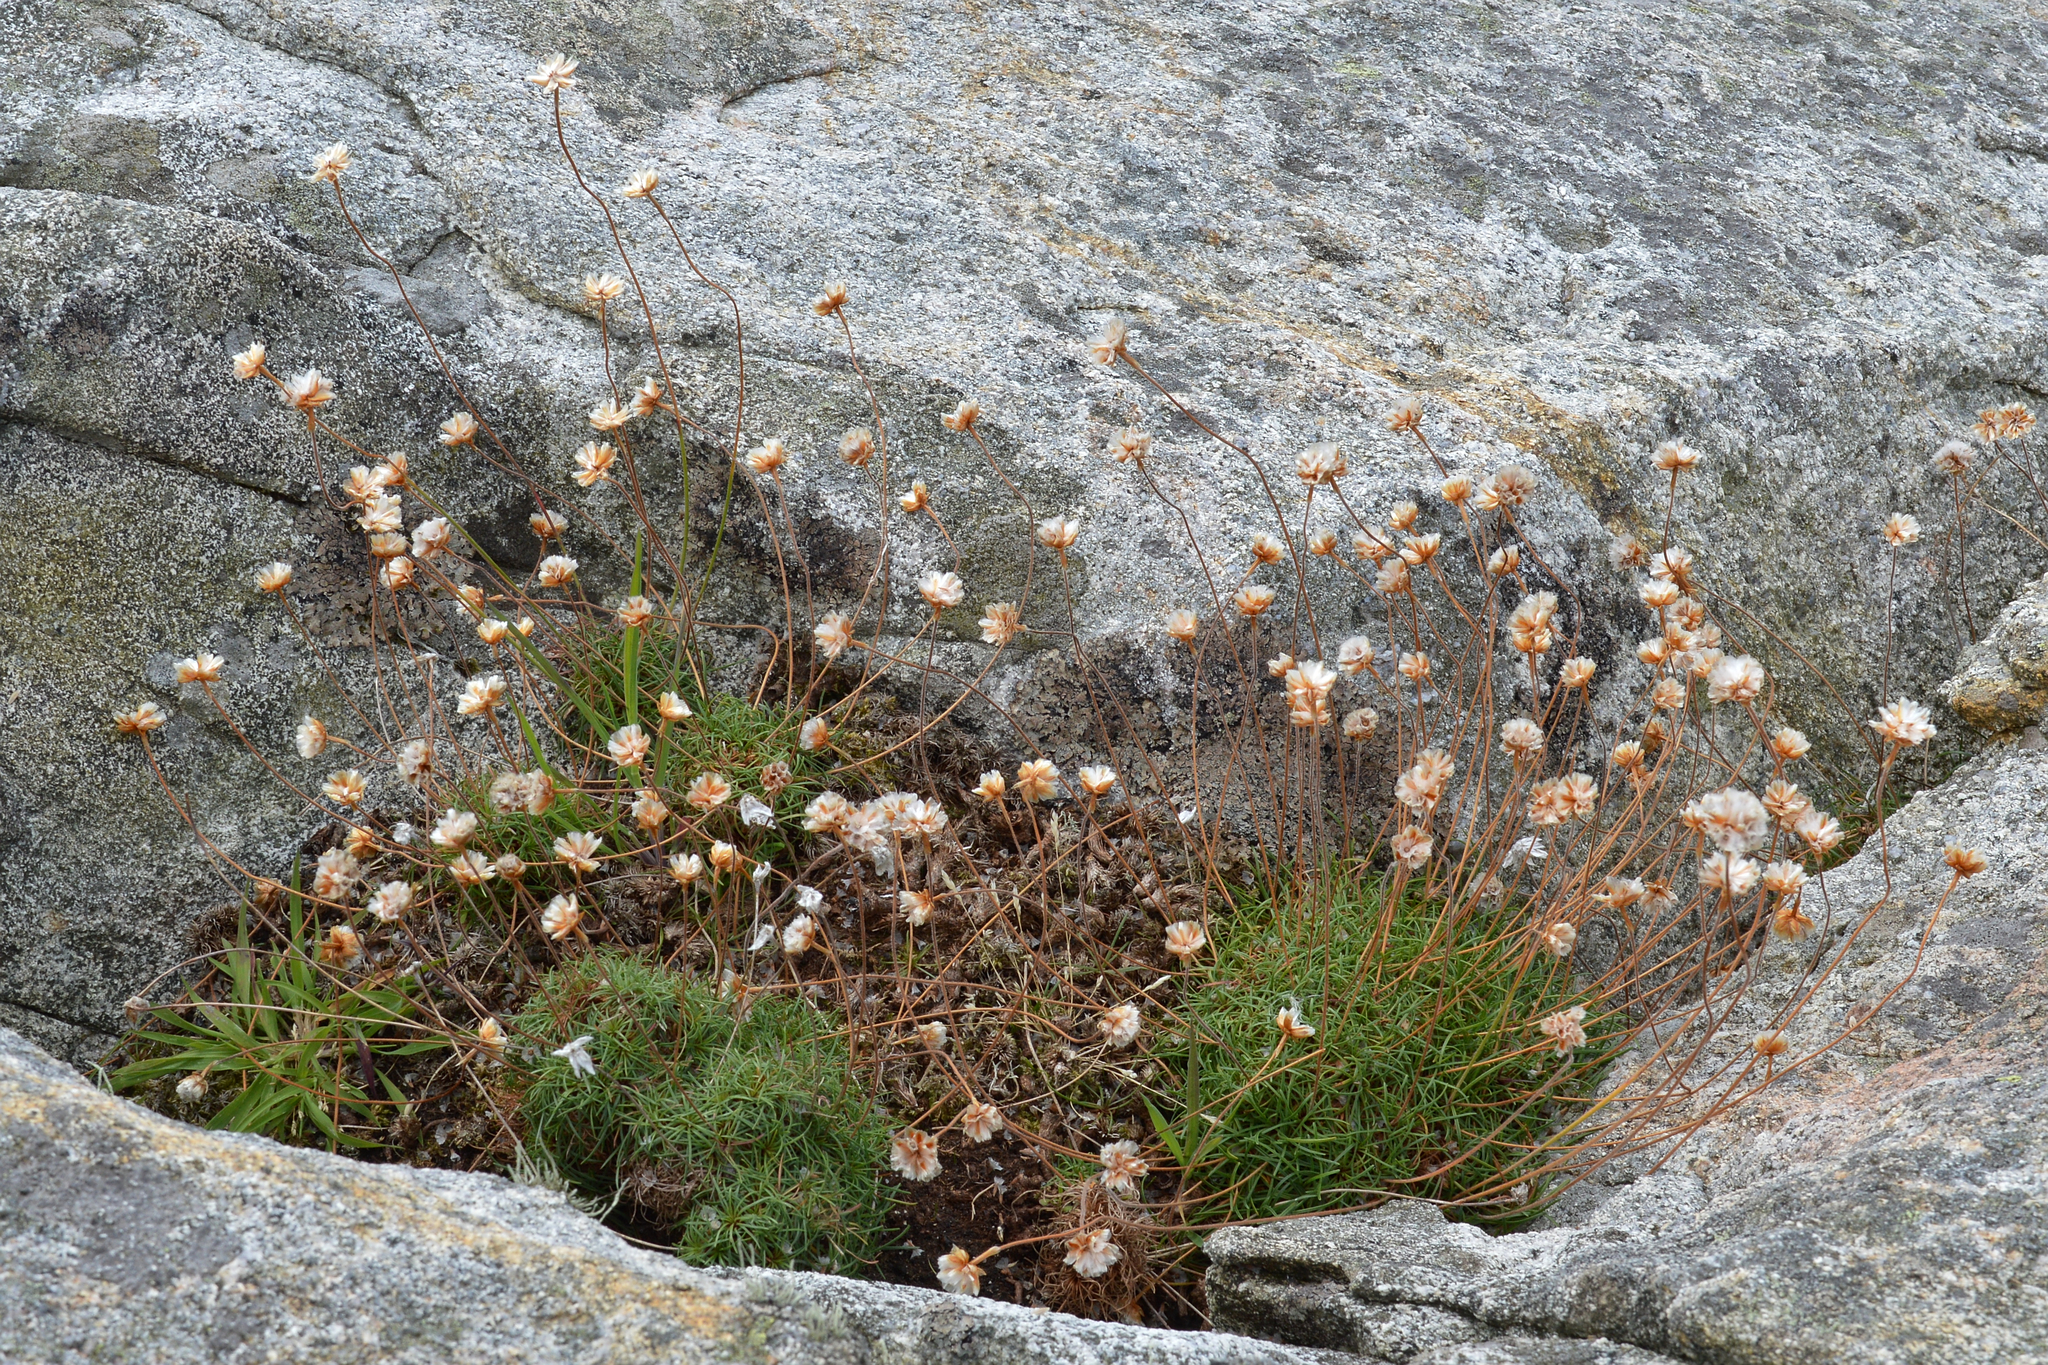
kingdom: Plantae
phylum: Tracheophyta
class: Magnoliopsida
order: Caryophyllales
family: Plumbaginaceae
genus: Armeria
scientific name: Armeria maritima
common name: Thrift
